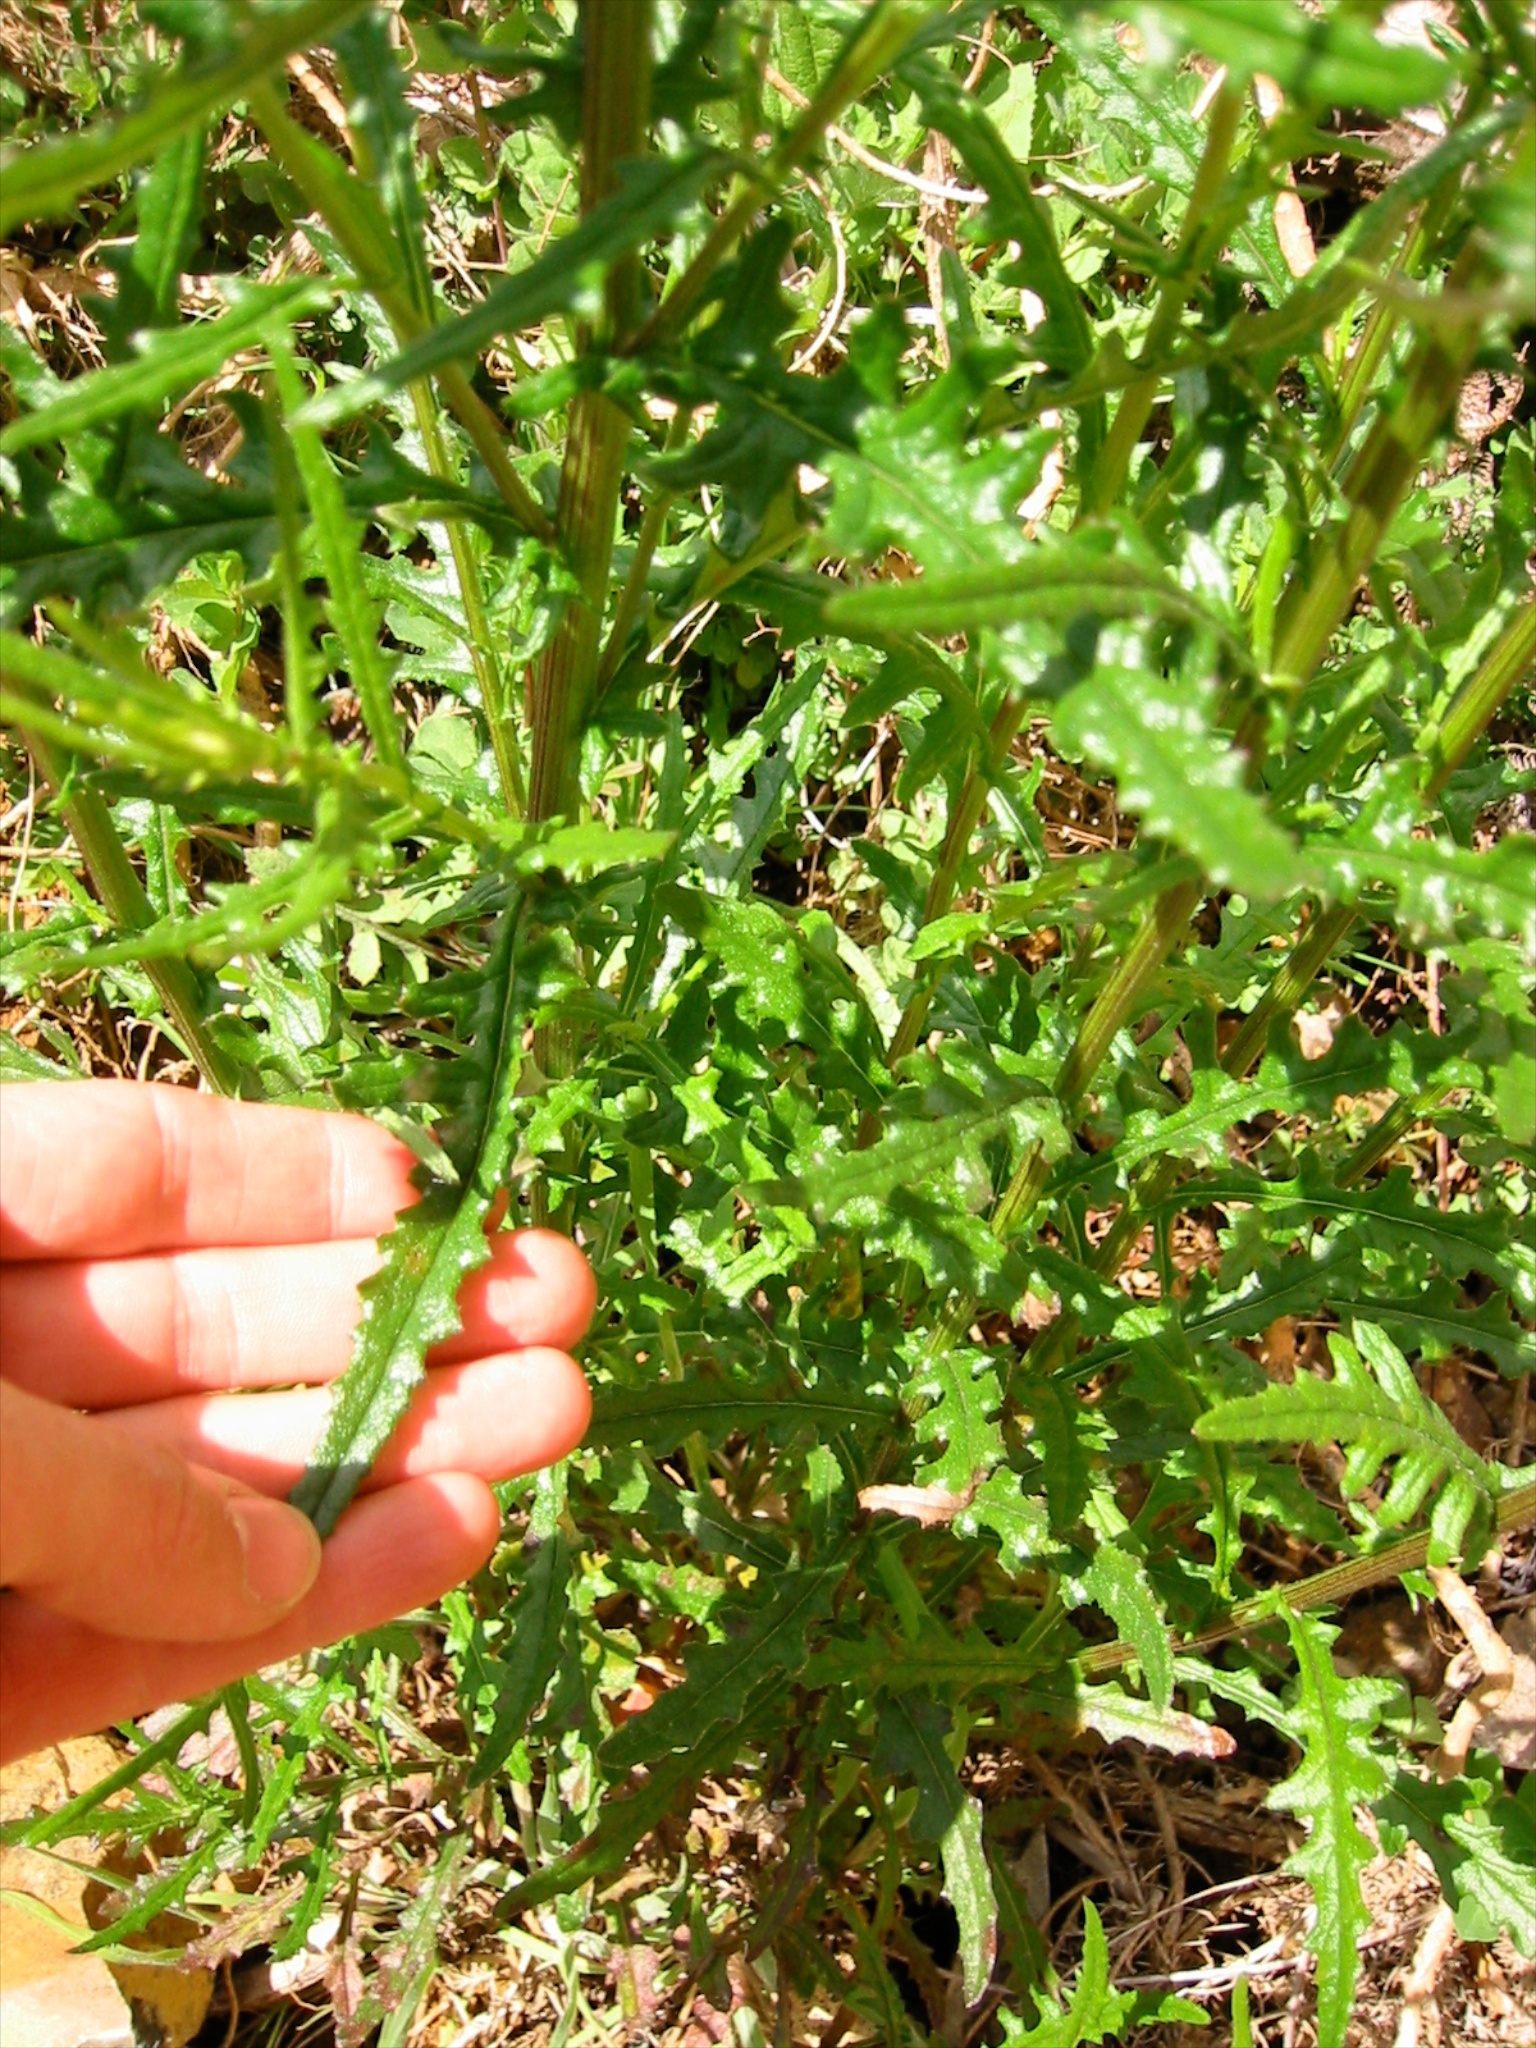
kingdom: Plantae
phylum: Tracheophyta
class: Magnoliopsida
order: Asterales
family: Asteraceae
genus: Senecio
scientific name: Senecio hispidulus
